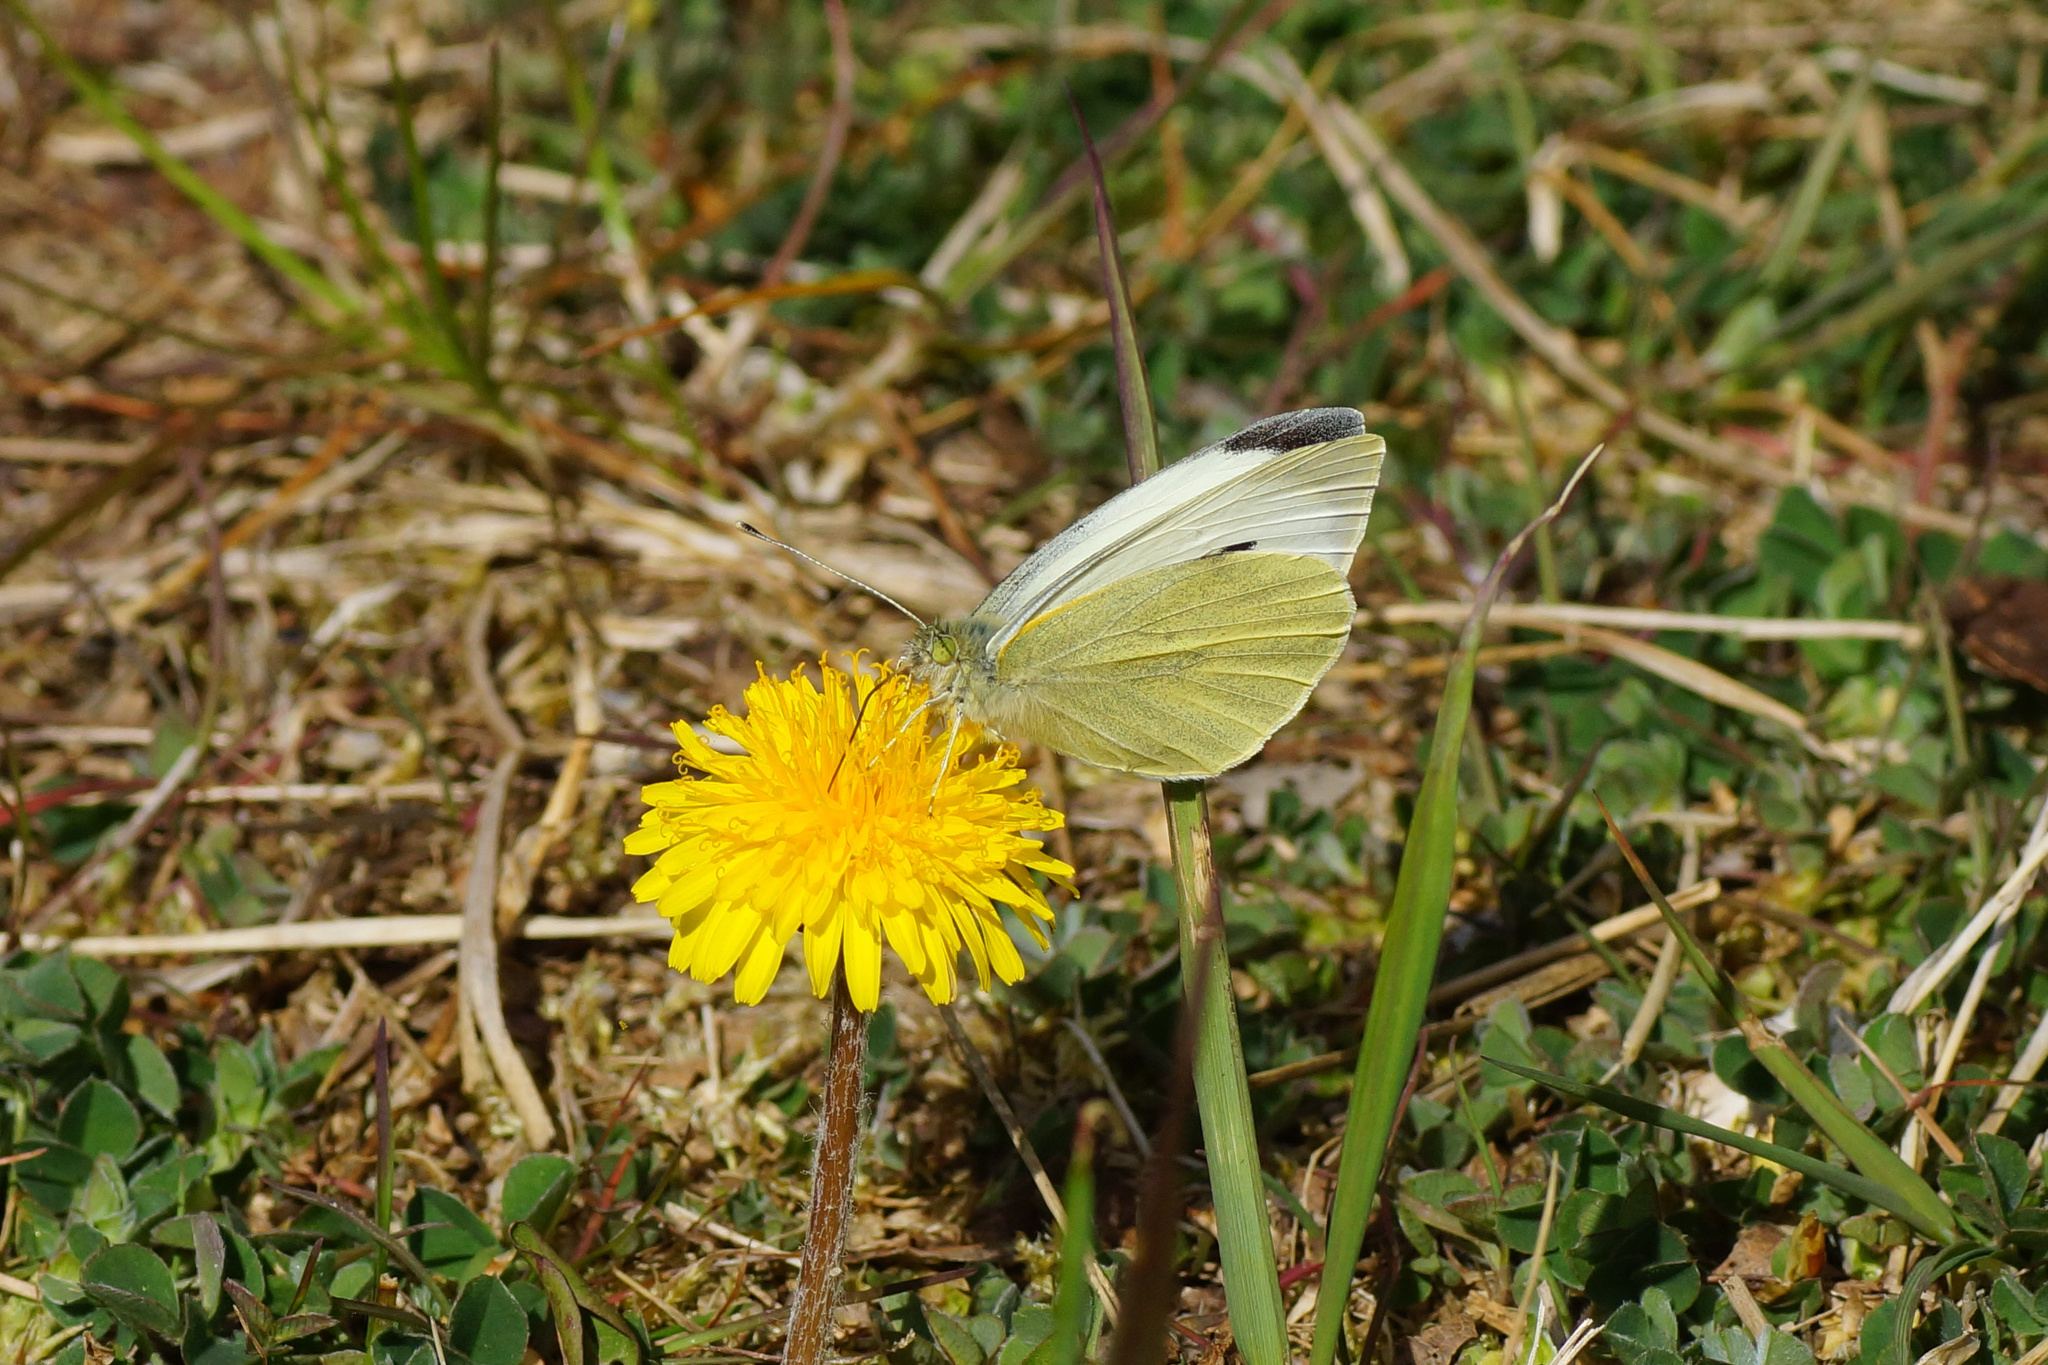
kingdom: Animalia
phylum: Arthropoda
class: Insecta
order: Lepidoptera
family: Pieridae
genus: Pieris
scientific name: Pieris brassicae
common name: Large white
